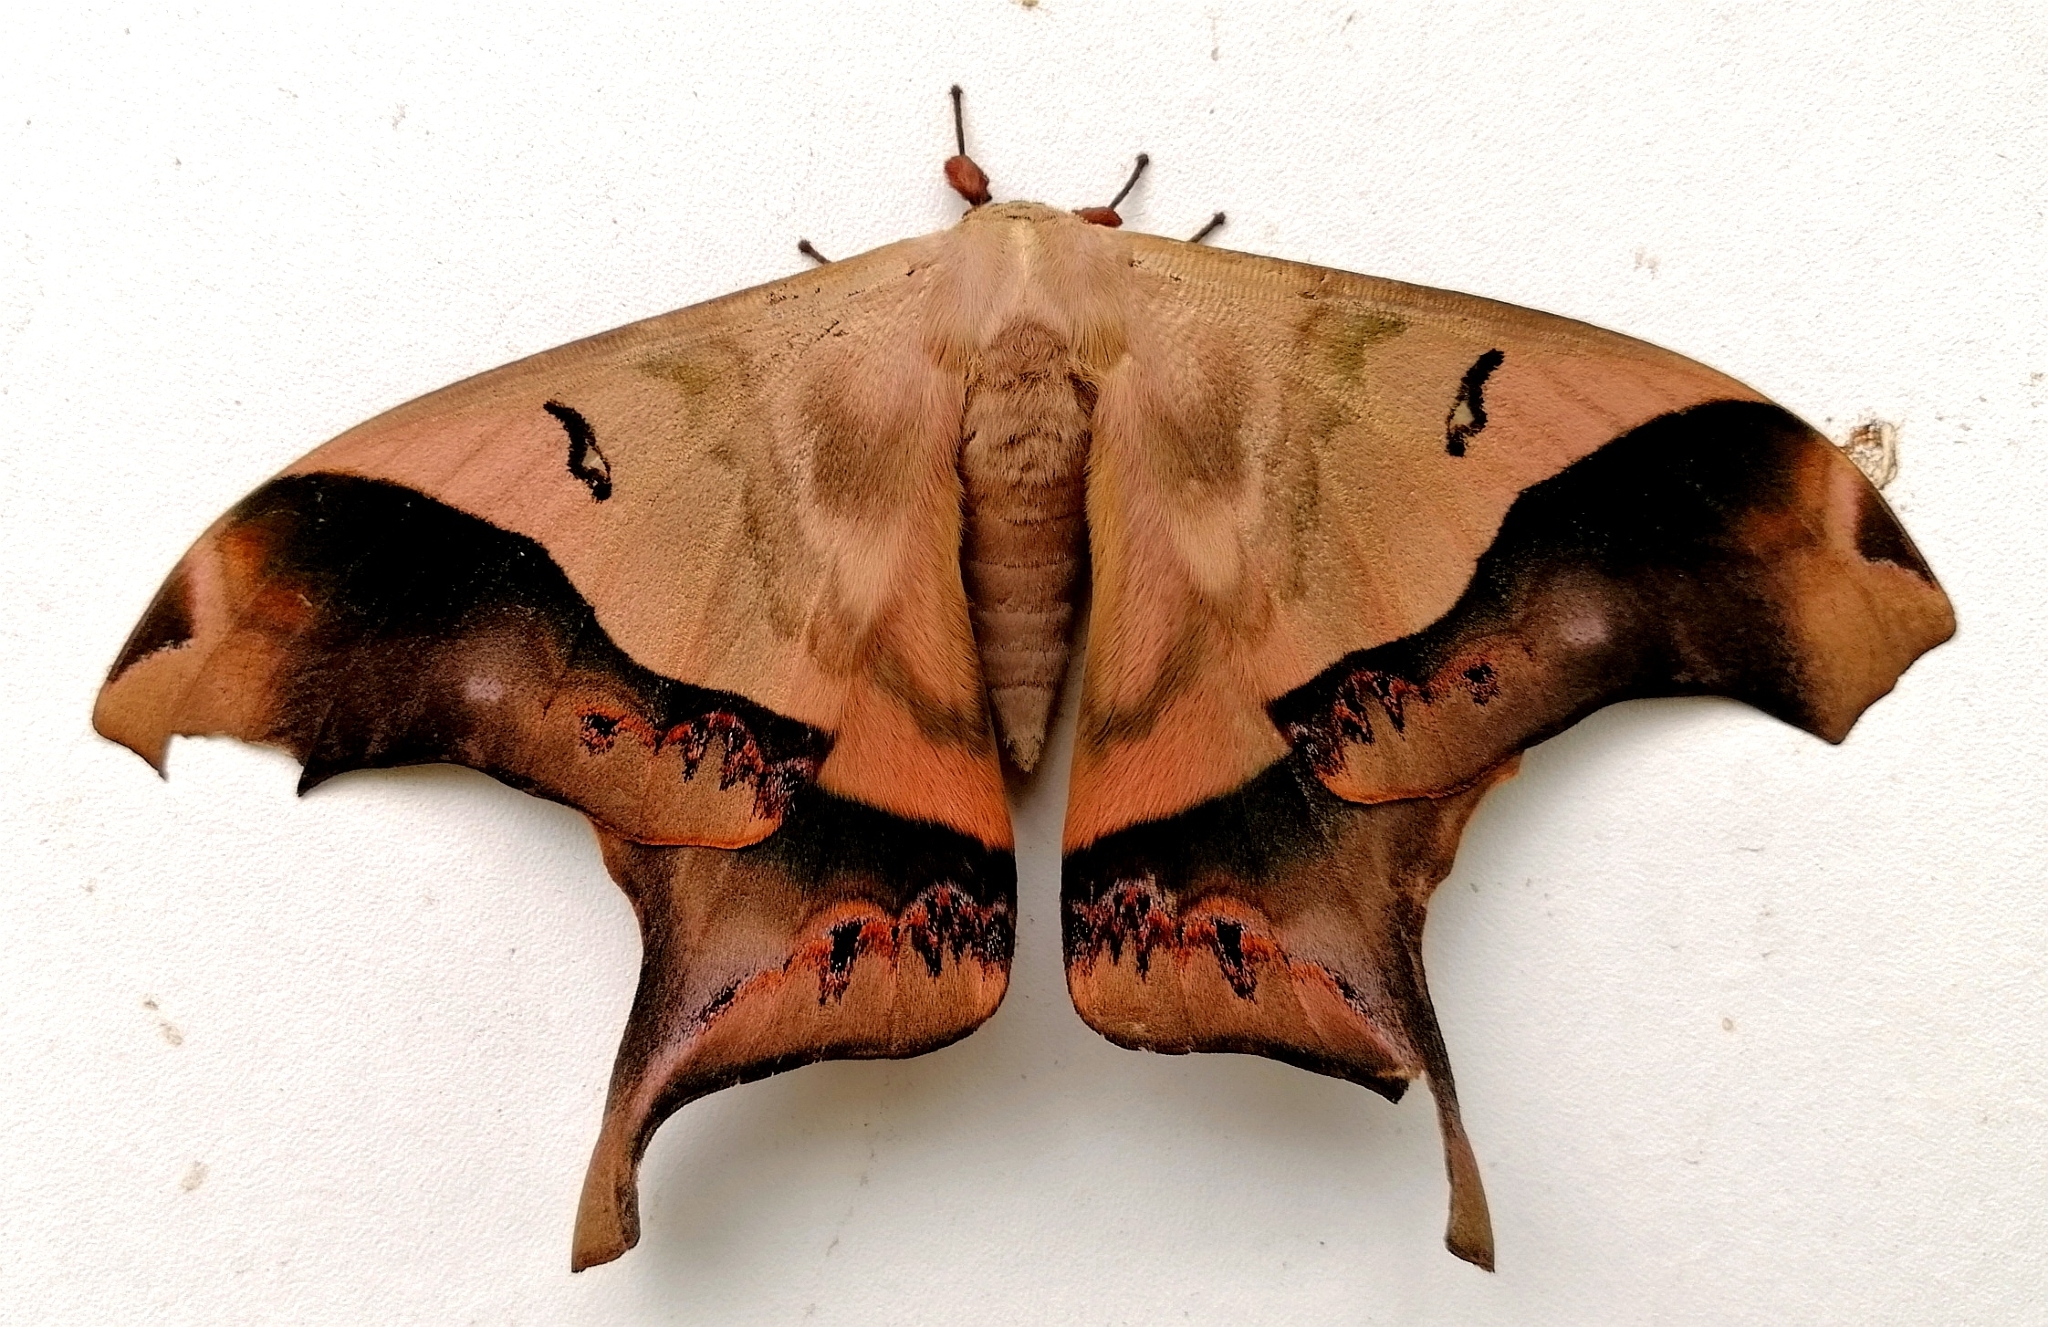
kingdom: Animalia
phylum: Arthropoda
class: Insecta
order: Lepidoptera
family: Saturniidae
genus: Titaea
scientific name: Titaea timur
